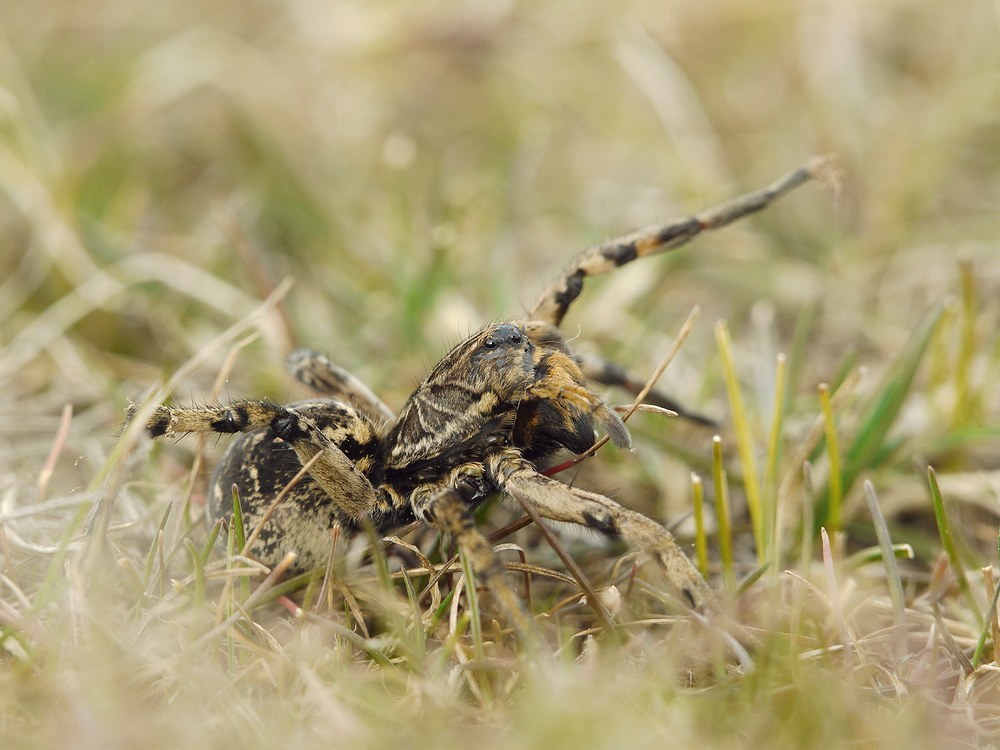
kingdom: Animalia
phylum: Arthropoda
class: Arachnida
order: Araneae
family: Lycosidae
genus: Geolycosa
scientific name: Geolycosa vultuosa
